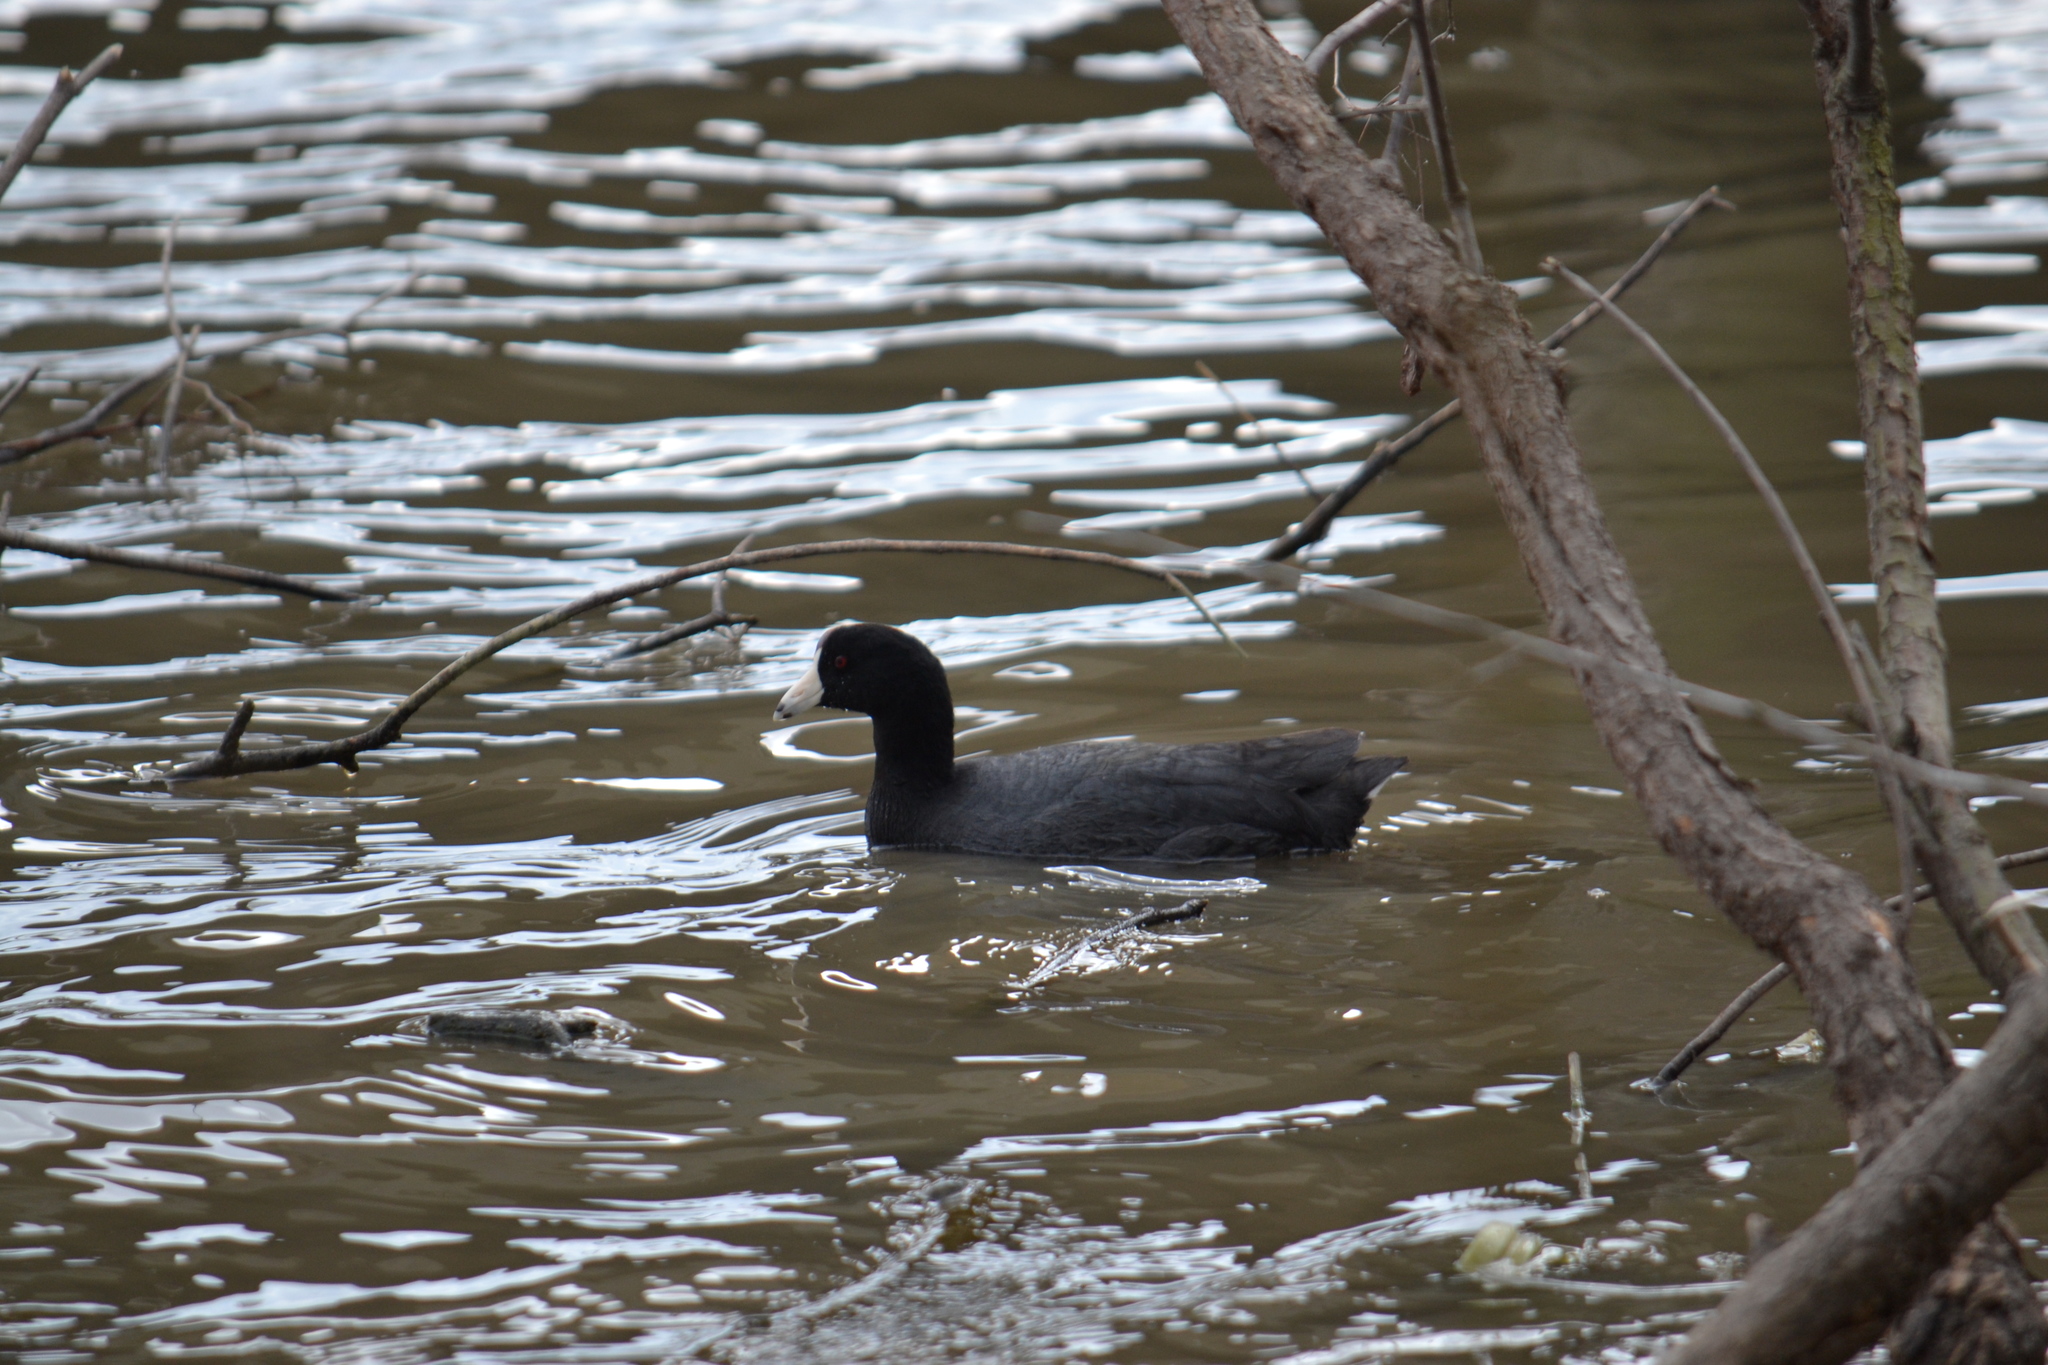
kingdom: Animalia
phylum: Chordata
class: Aves
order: Gruiformes
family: Rallidae
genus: Fulica
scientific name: Fulica americana
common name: American coot
